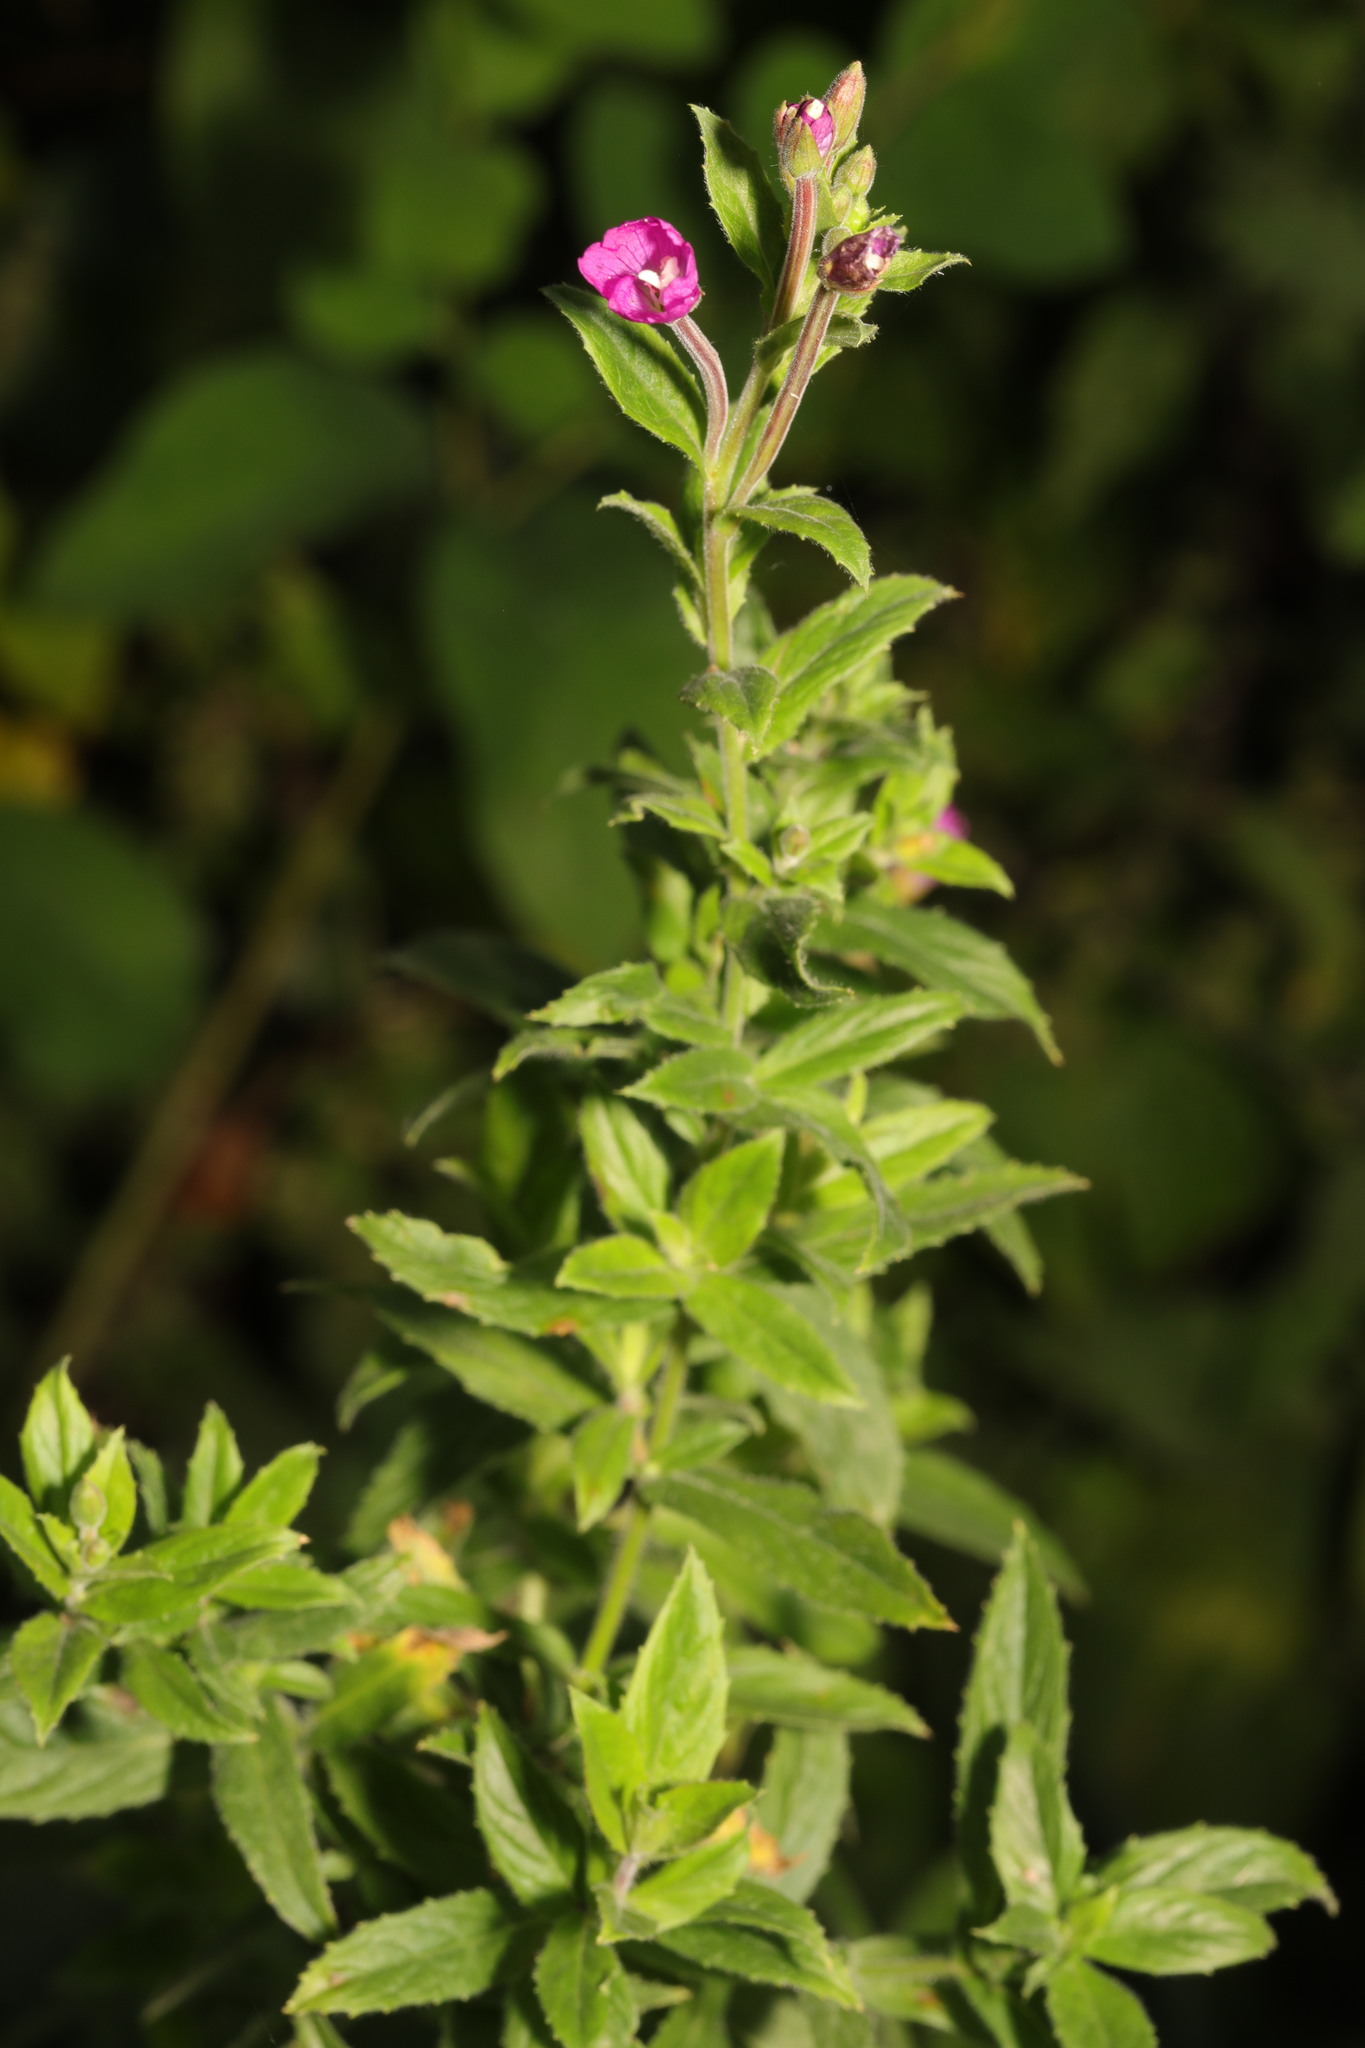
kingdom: Plantae
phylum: Tracheophyta
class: Magnoliopsida
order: Myrtales
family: Onagraceae
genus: Epilobium
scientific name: Epilobium hirsutum
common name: Great willowherb
